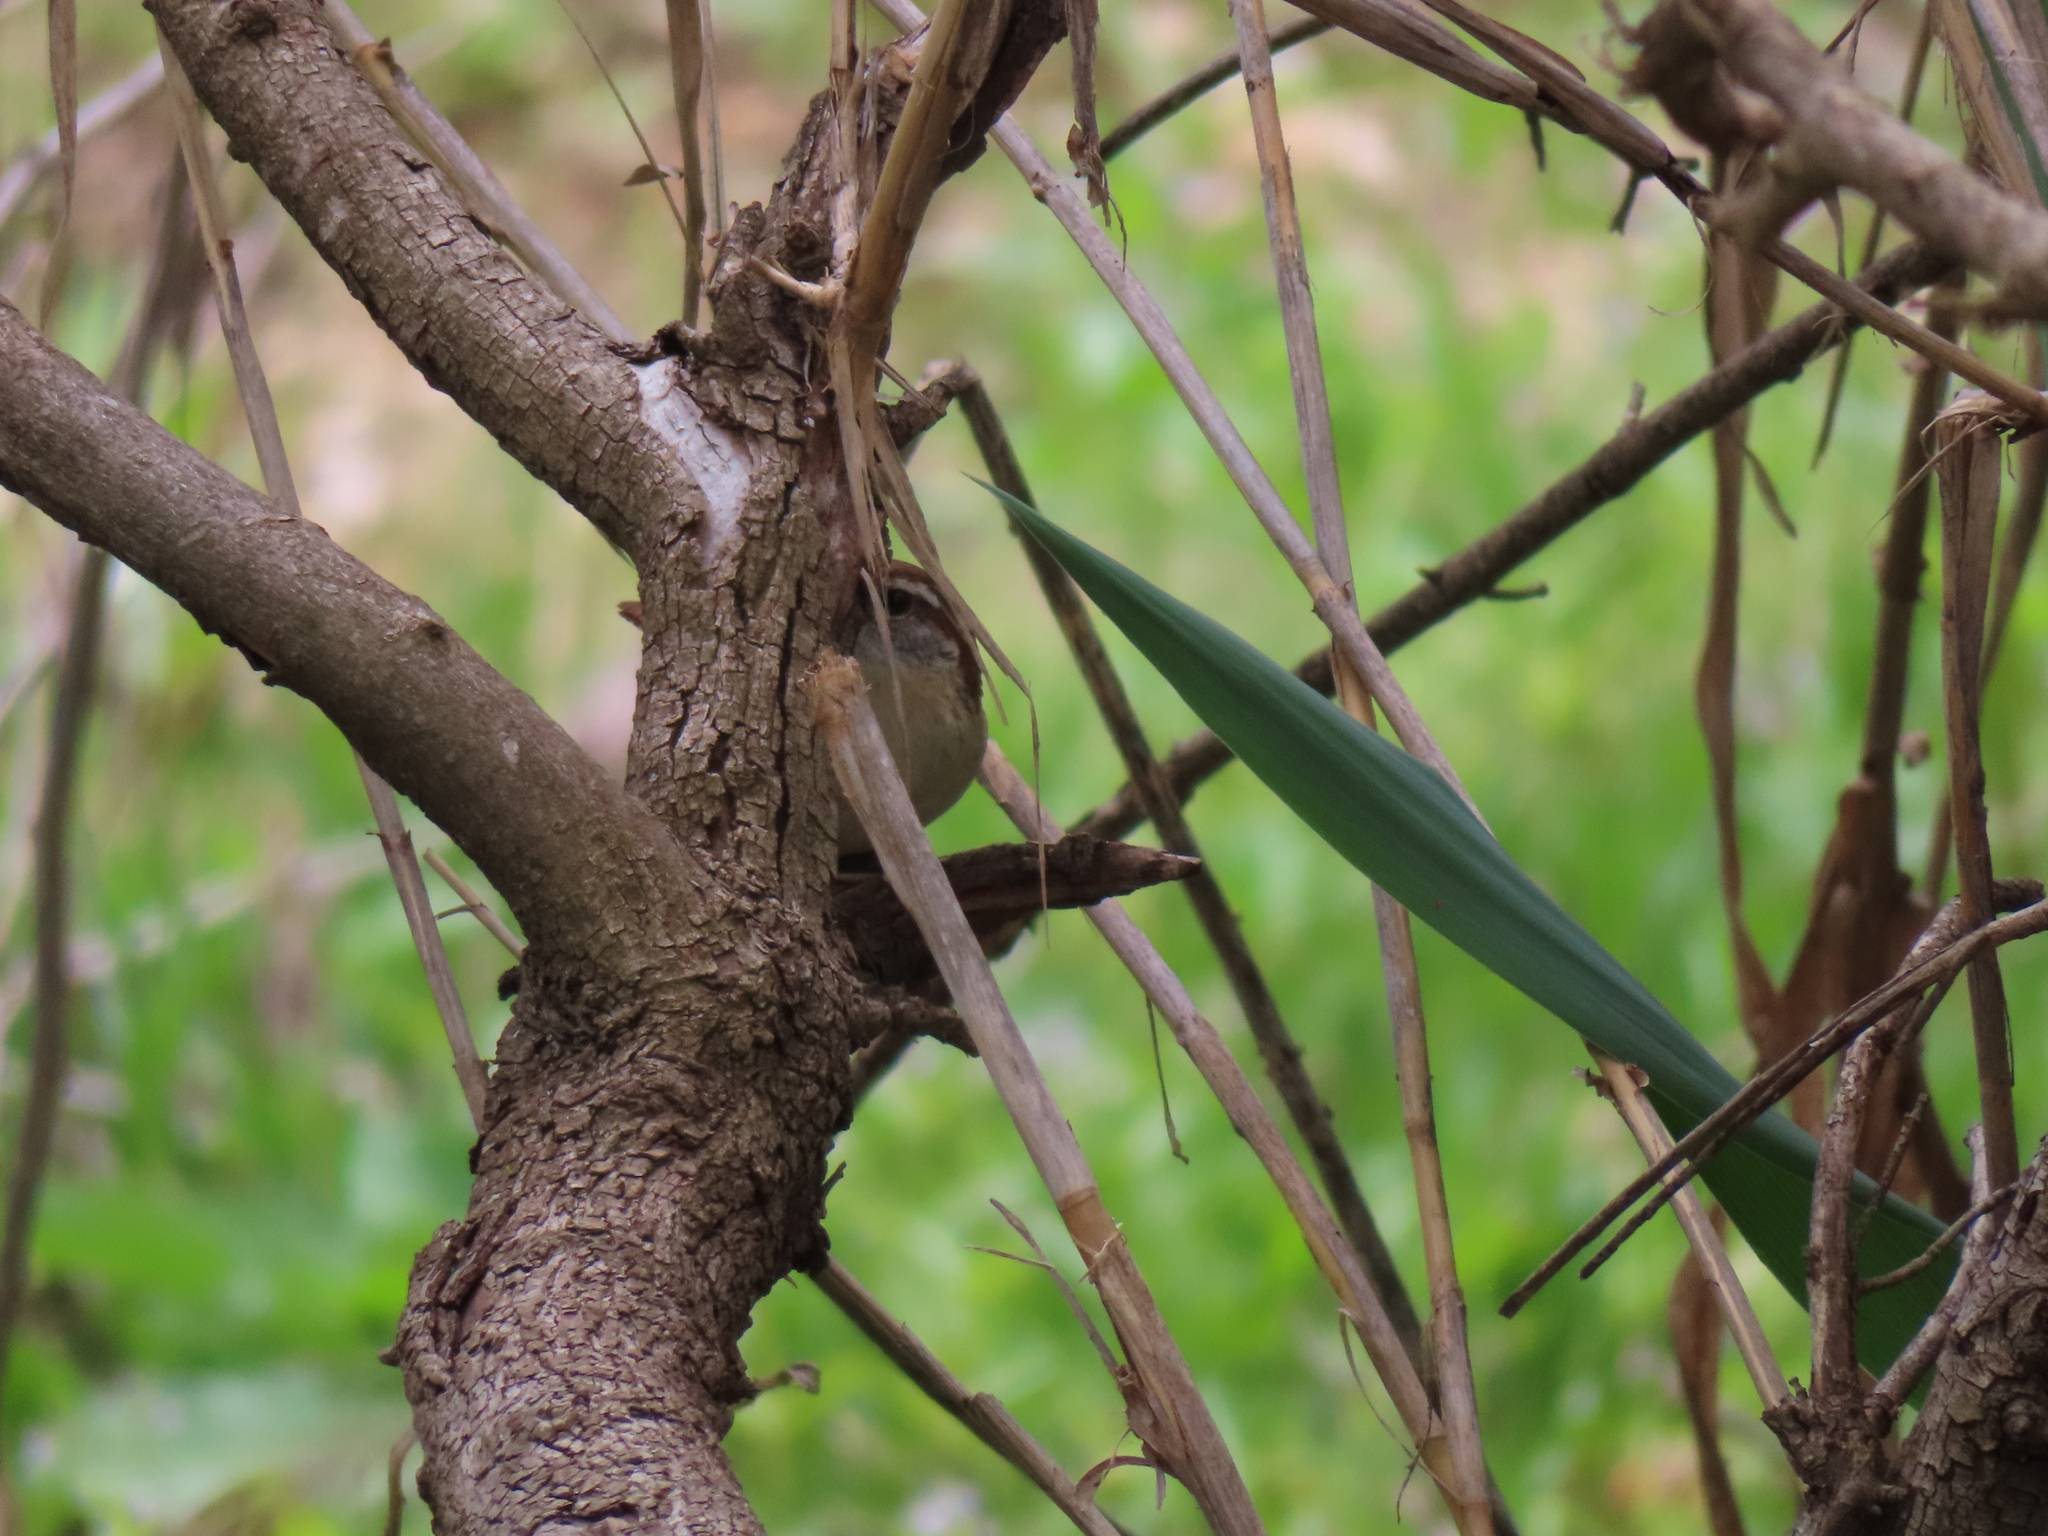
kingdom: Animalia
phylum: Chordata
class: Aves
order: Passeriformes
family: Troglodytidae
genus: Thryothorus
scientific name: Thryothorus ludovicianus
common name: Carolina wren
